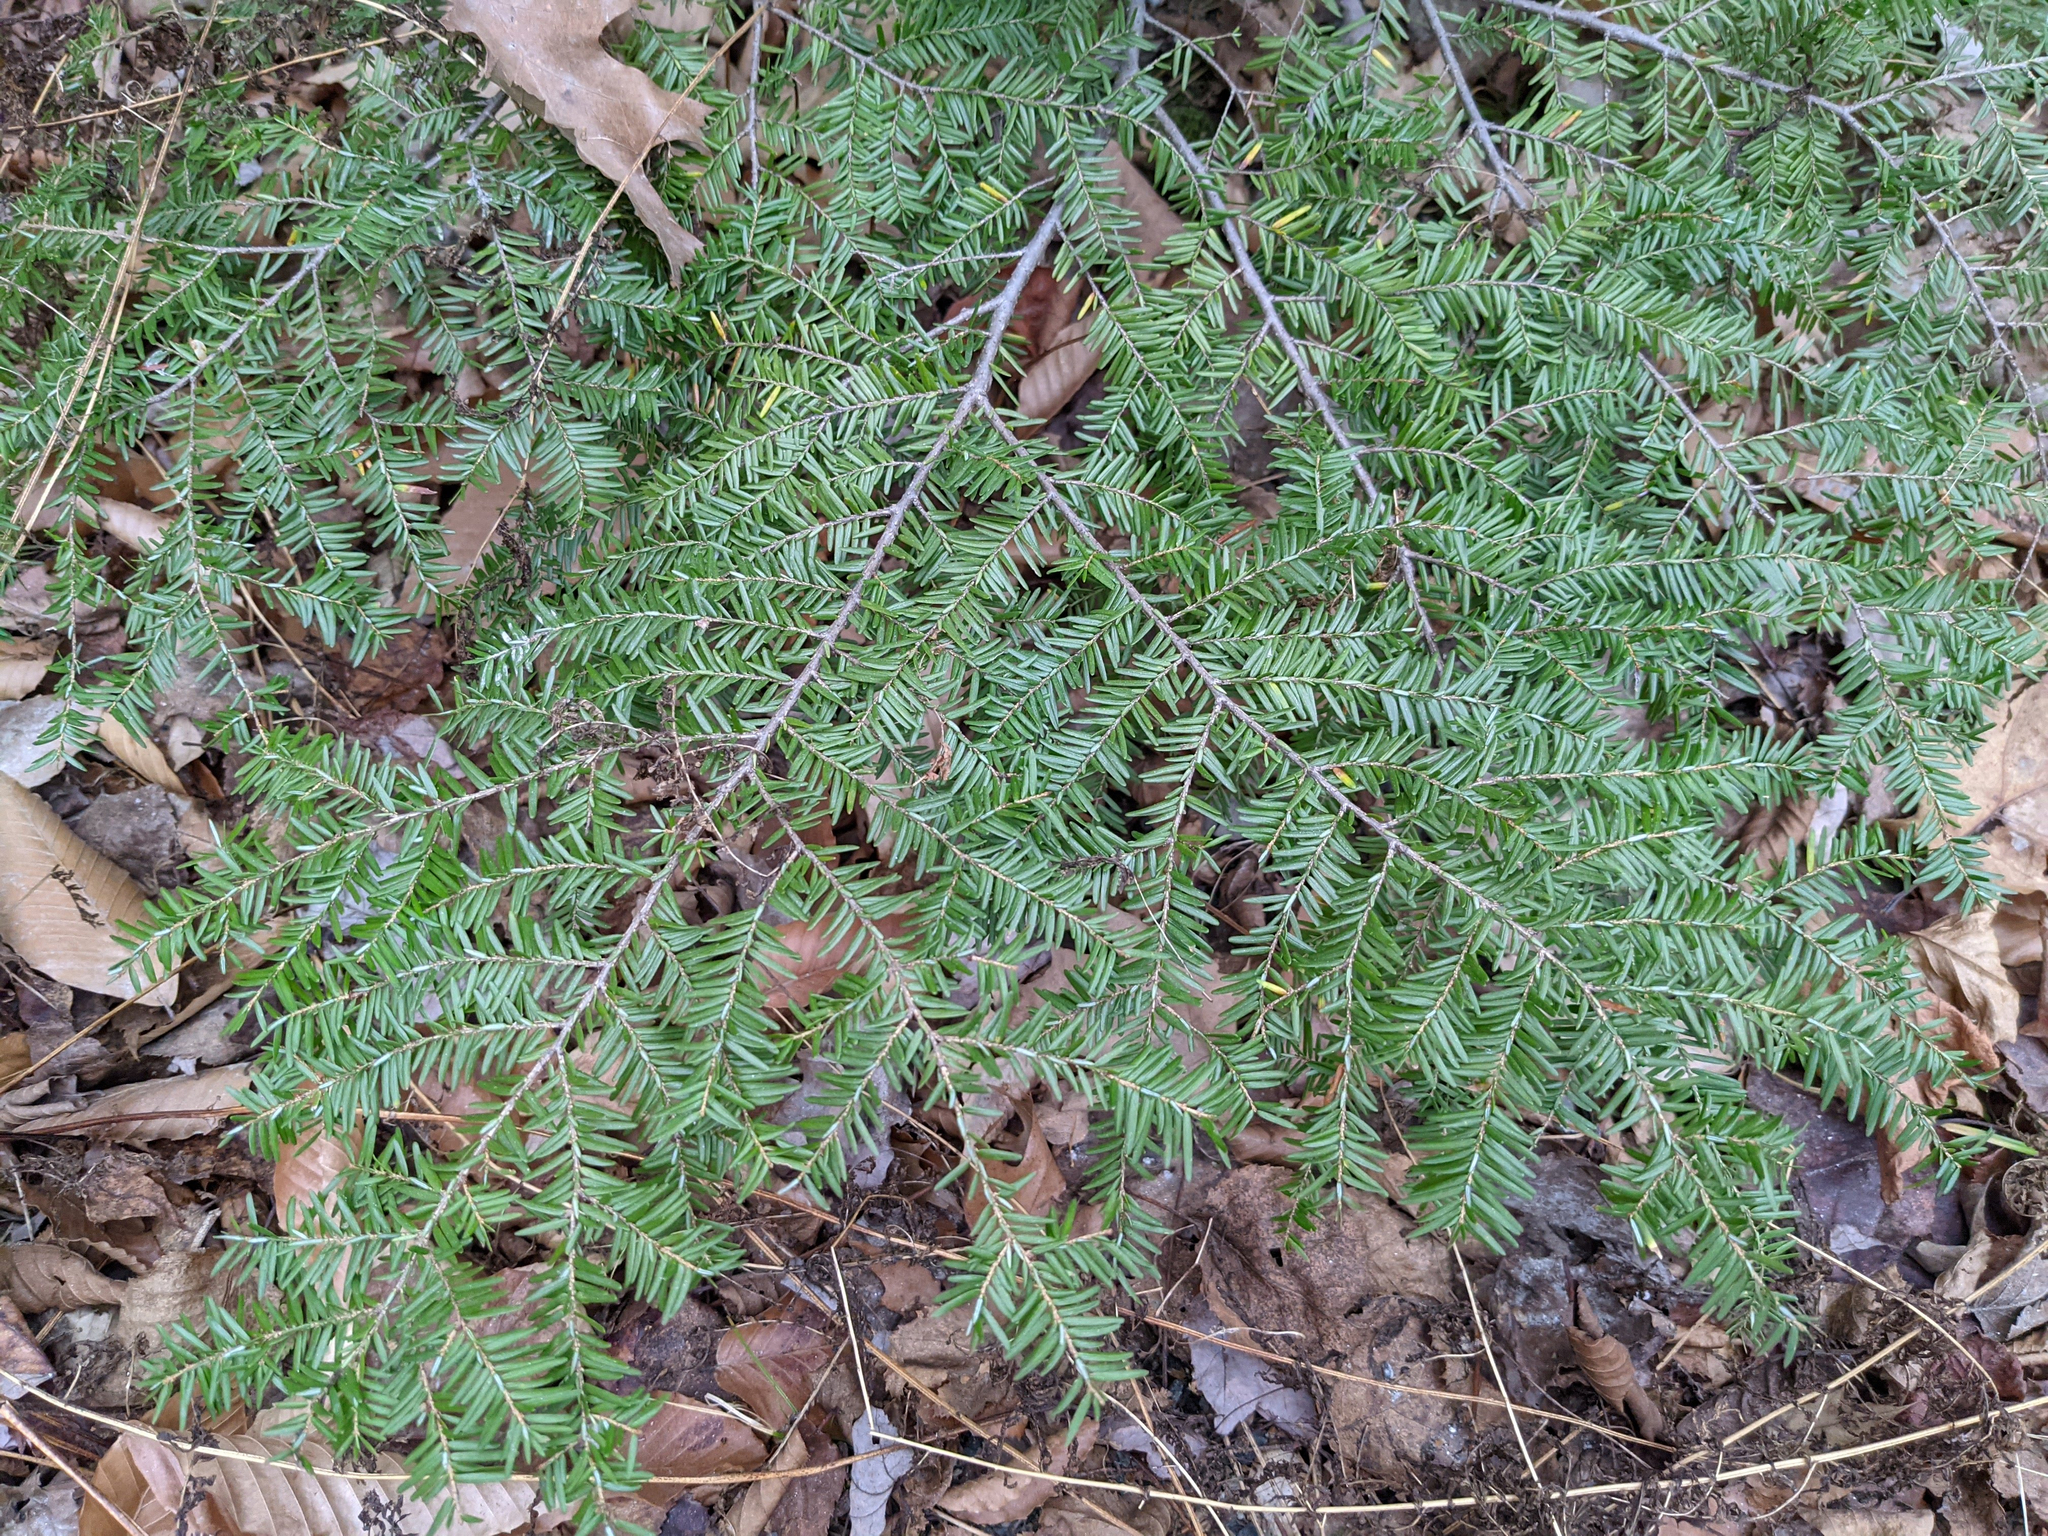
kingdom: Plantae
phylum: Tracheophyta
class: Pinopsida
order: Pinales
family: Pinaceae
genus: Tsuga
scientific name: Tsuga canadensis
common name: Eastern hemlock
